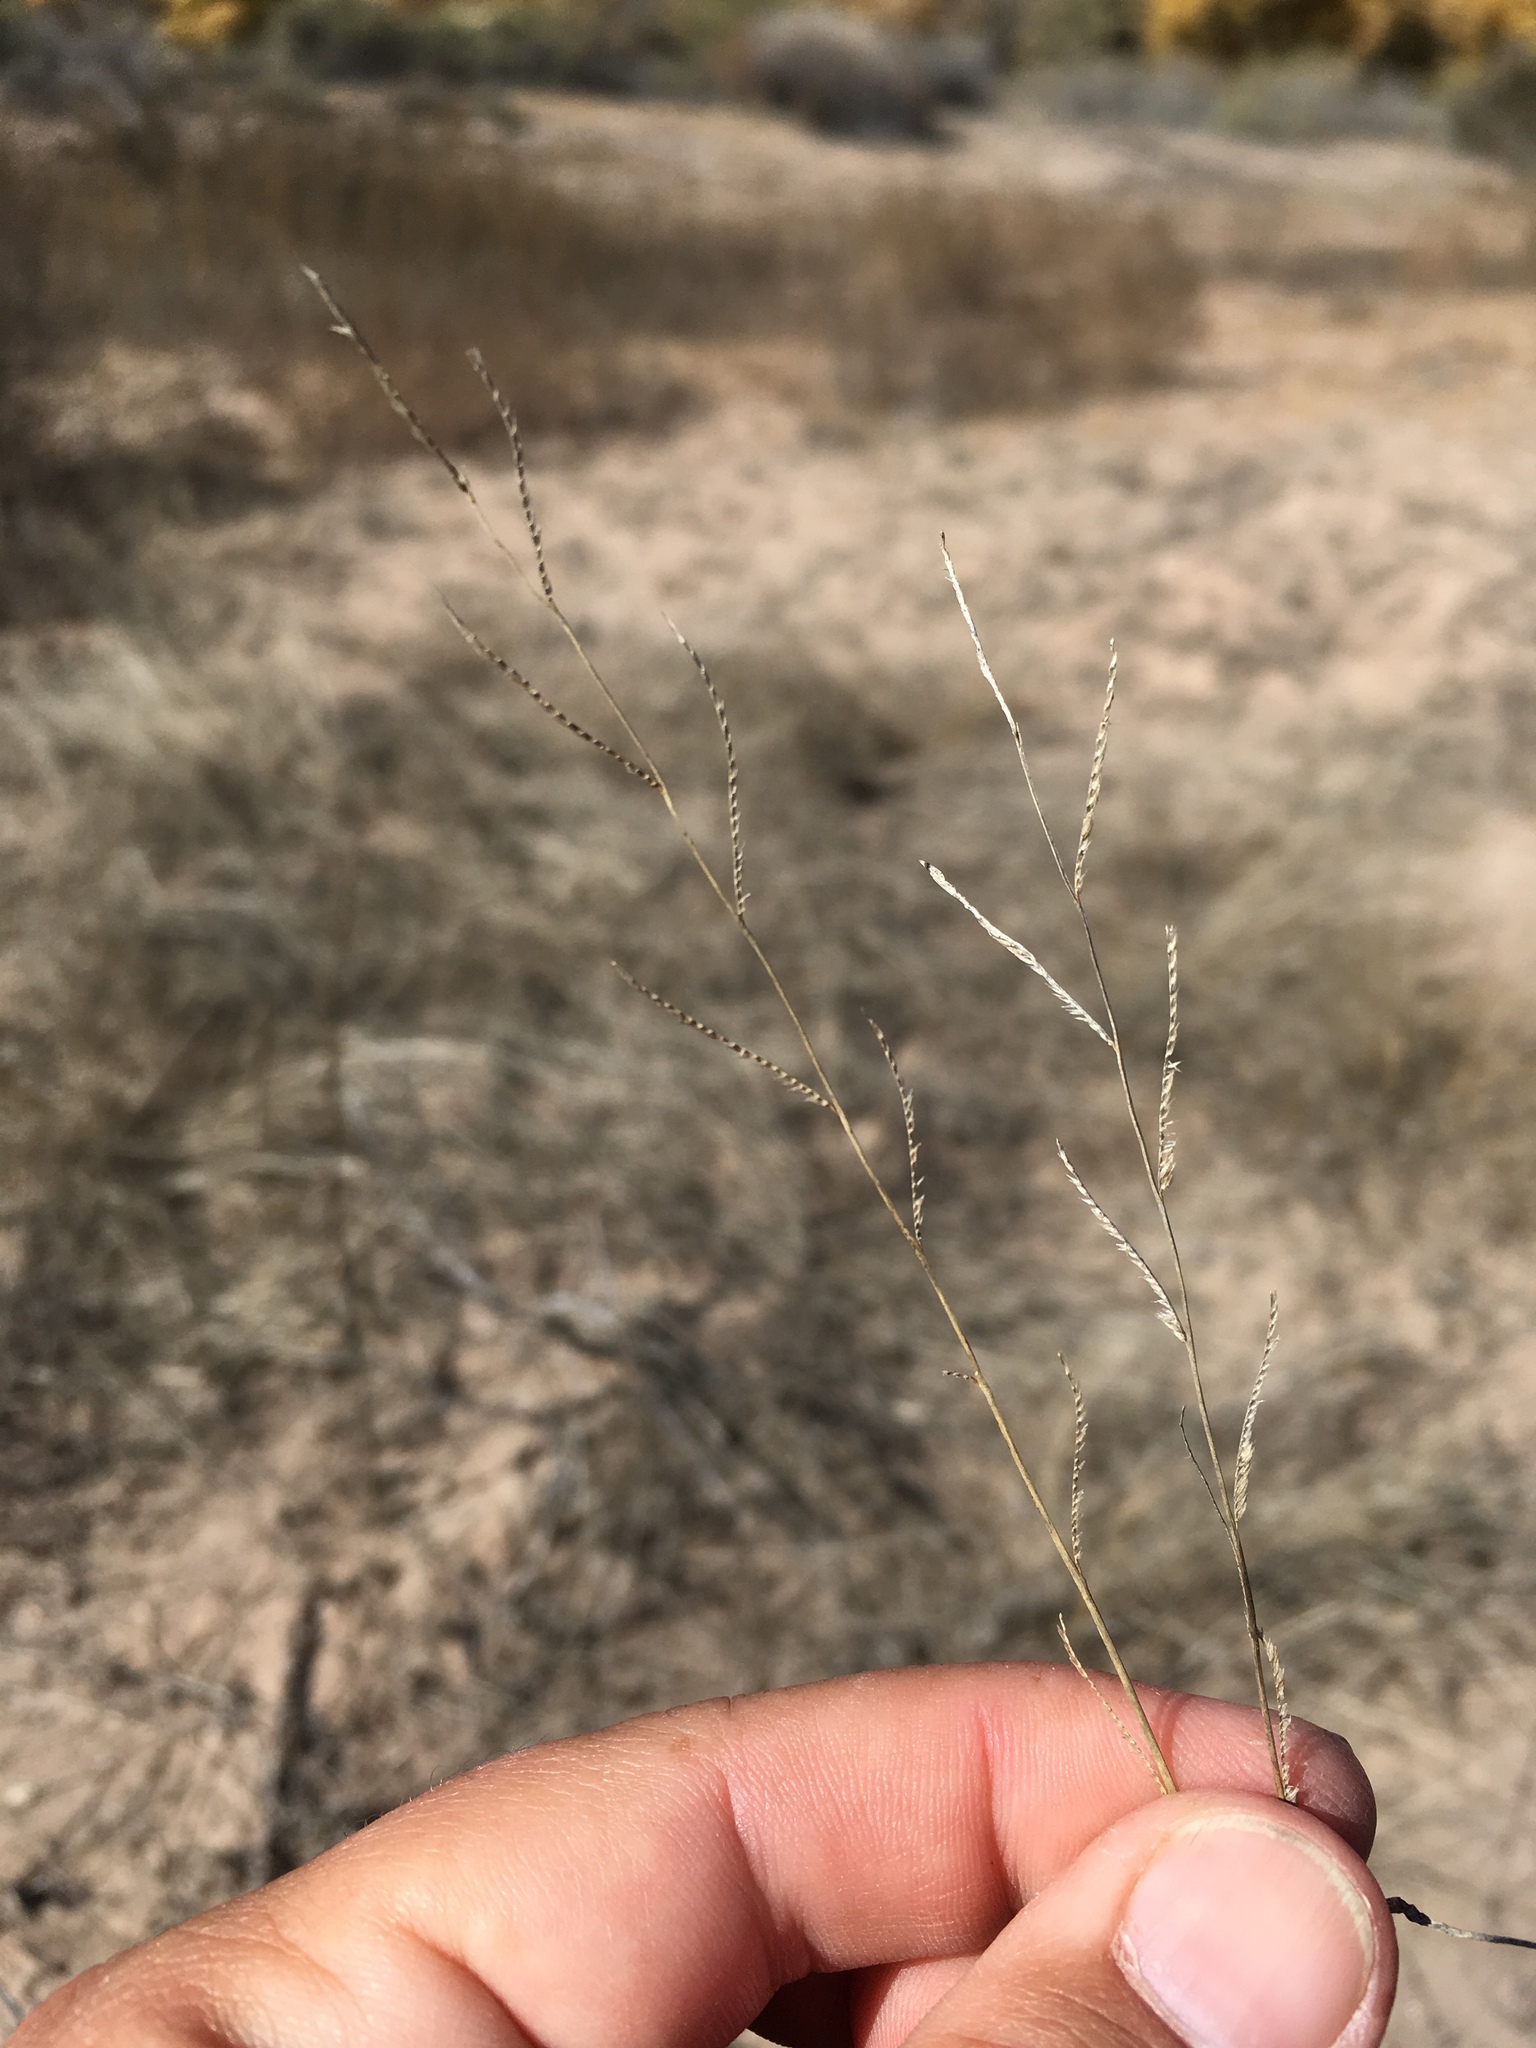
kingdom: Plantae
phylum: Tracheophyta
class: Liliopsida
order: Poales
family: Poaceae
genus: Bouteloua
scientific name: Bouteloua barbata
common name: Six-weeks grama
